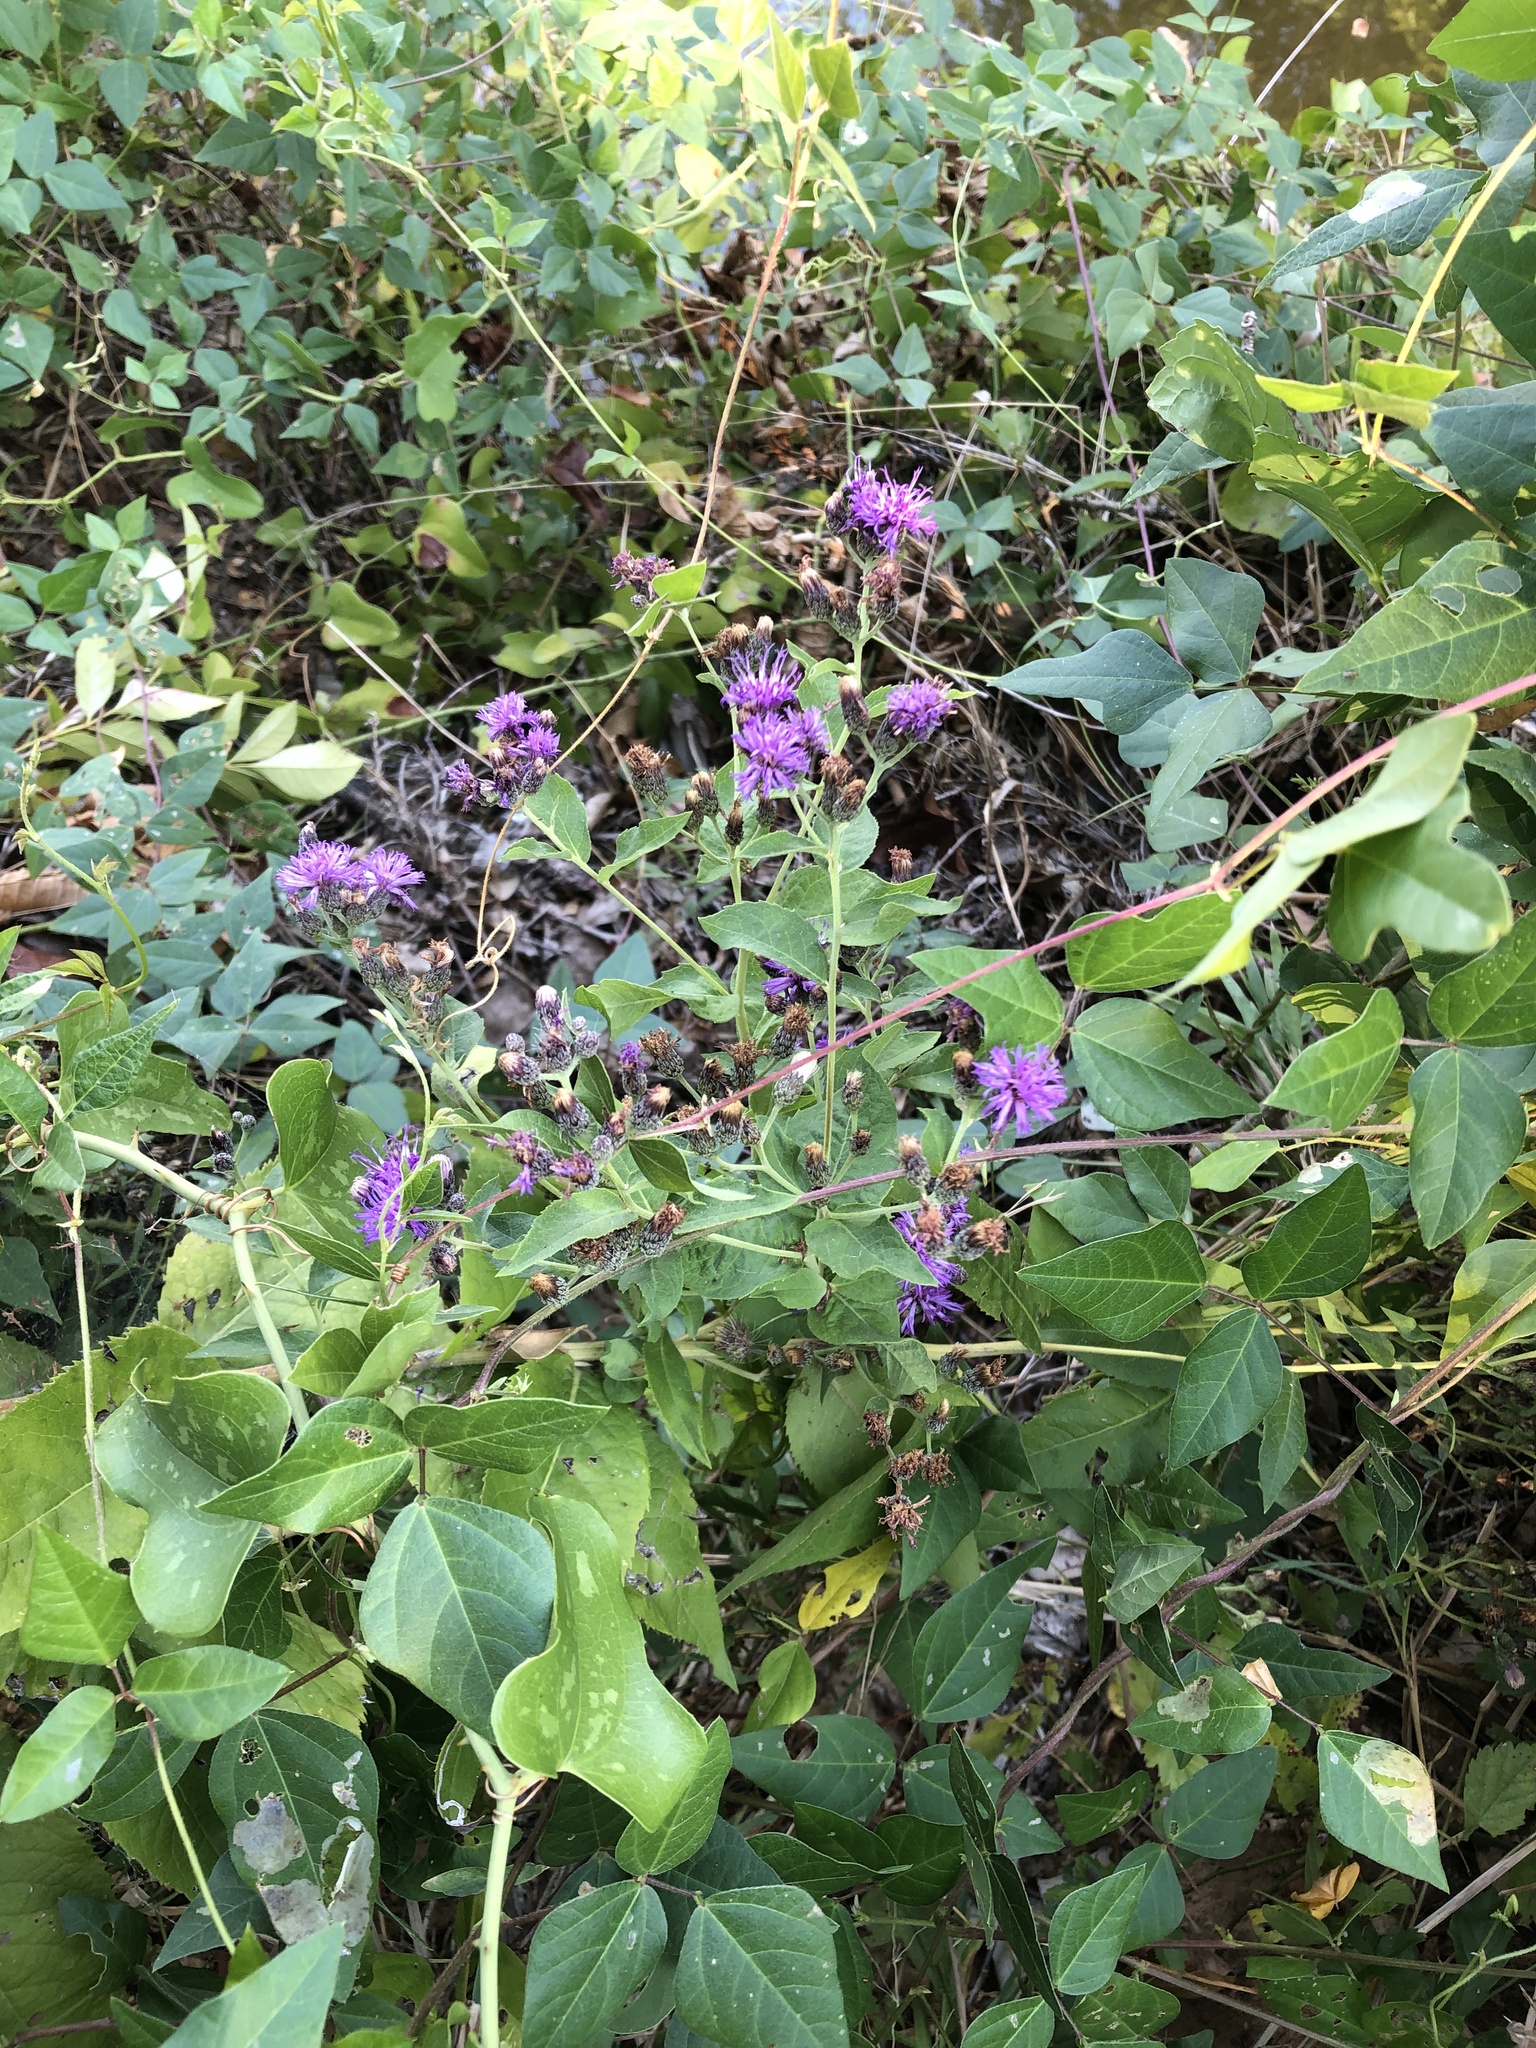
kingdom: Plantae
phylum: Tracheophyta
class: Magnoliopsida
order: Asterales
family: Asteraceae
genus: Vernonia
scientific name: Vernonia baldwinii
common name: Western ironweed
